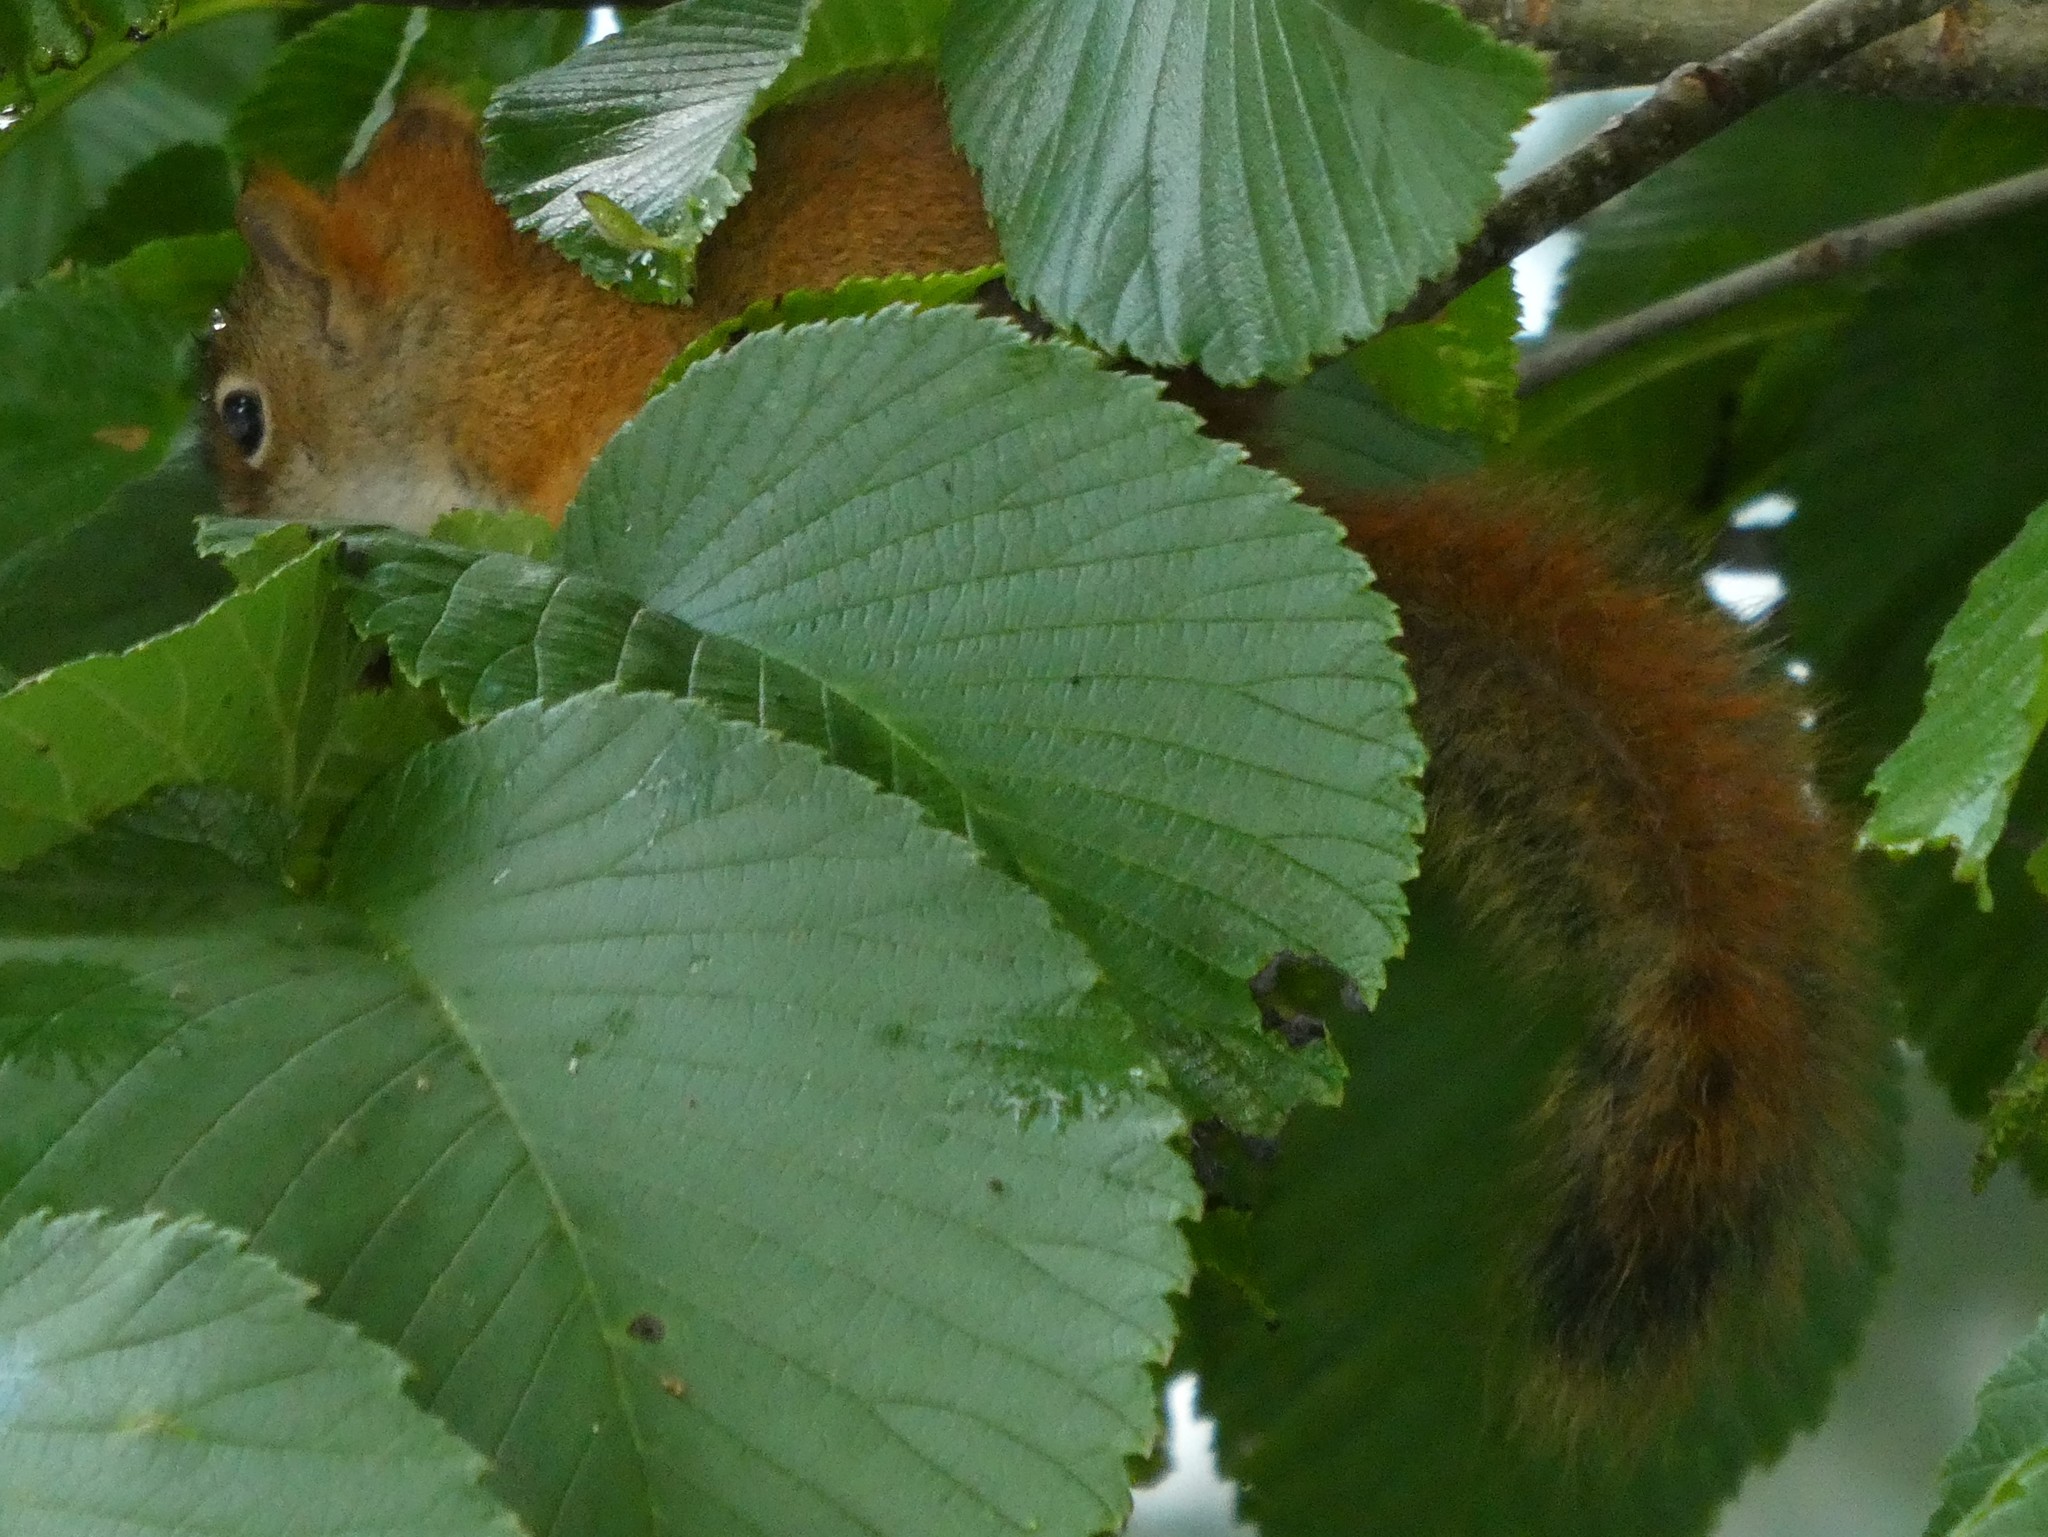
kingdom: Animalia
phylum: Chordata
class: Mammalia
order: Rodentia
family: Sciuridae
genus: Tamiasciurus
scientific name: Tamiasciurus hudsonicus
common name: Red squirrel
